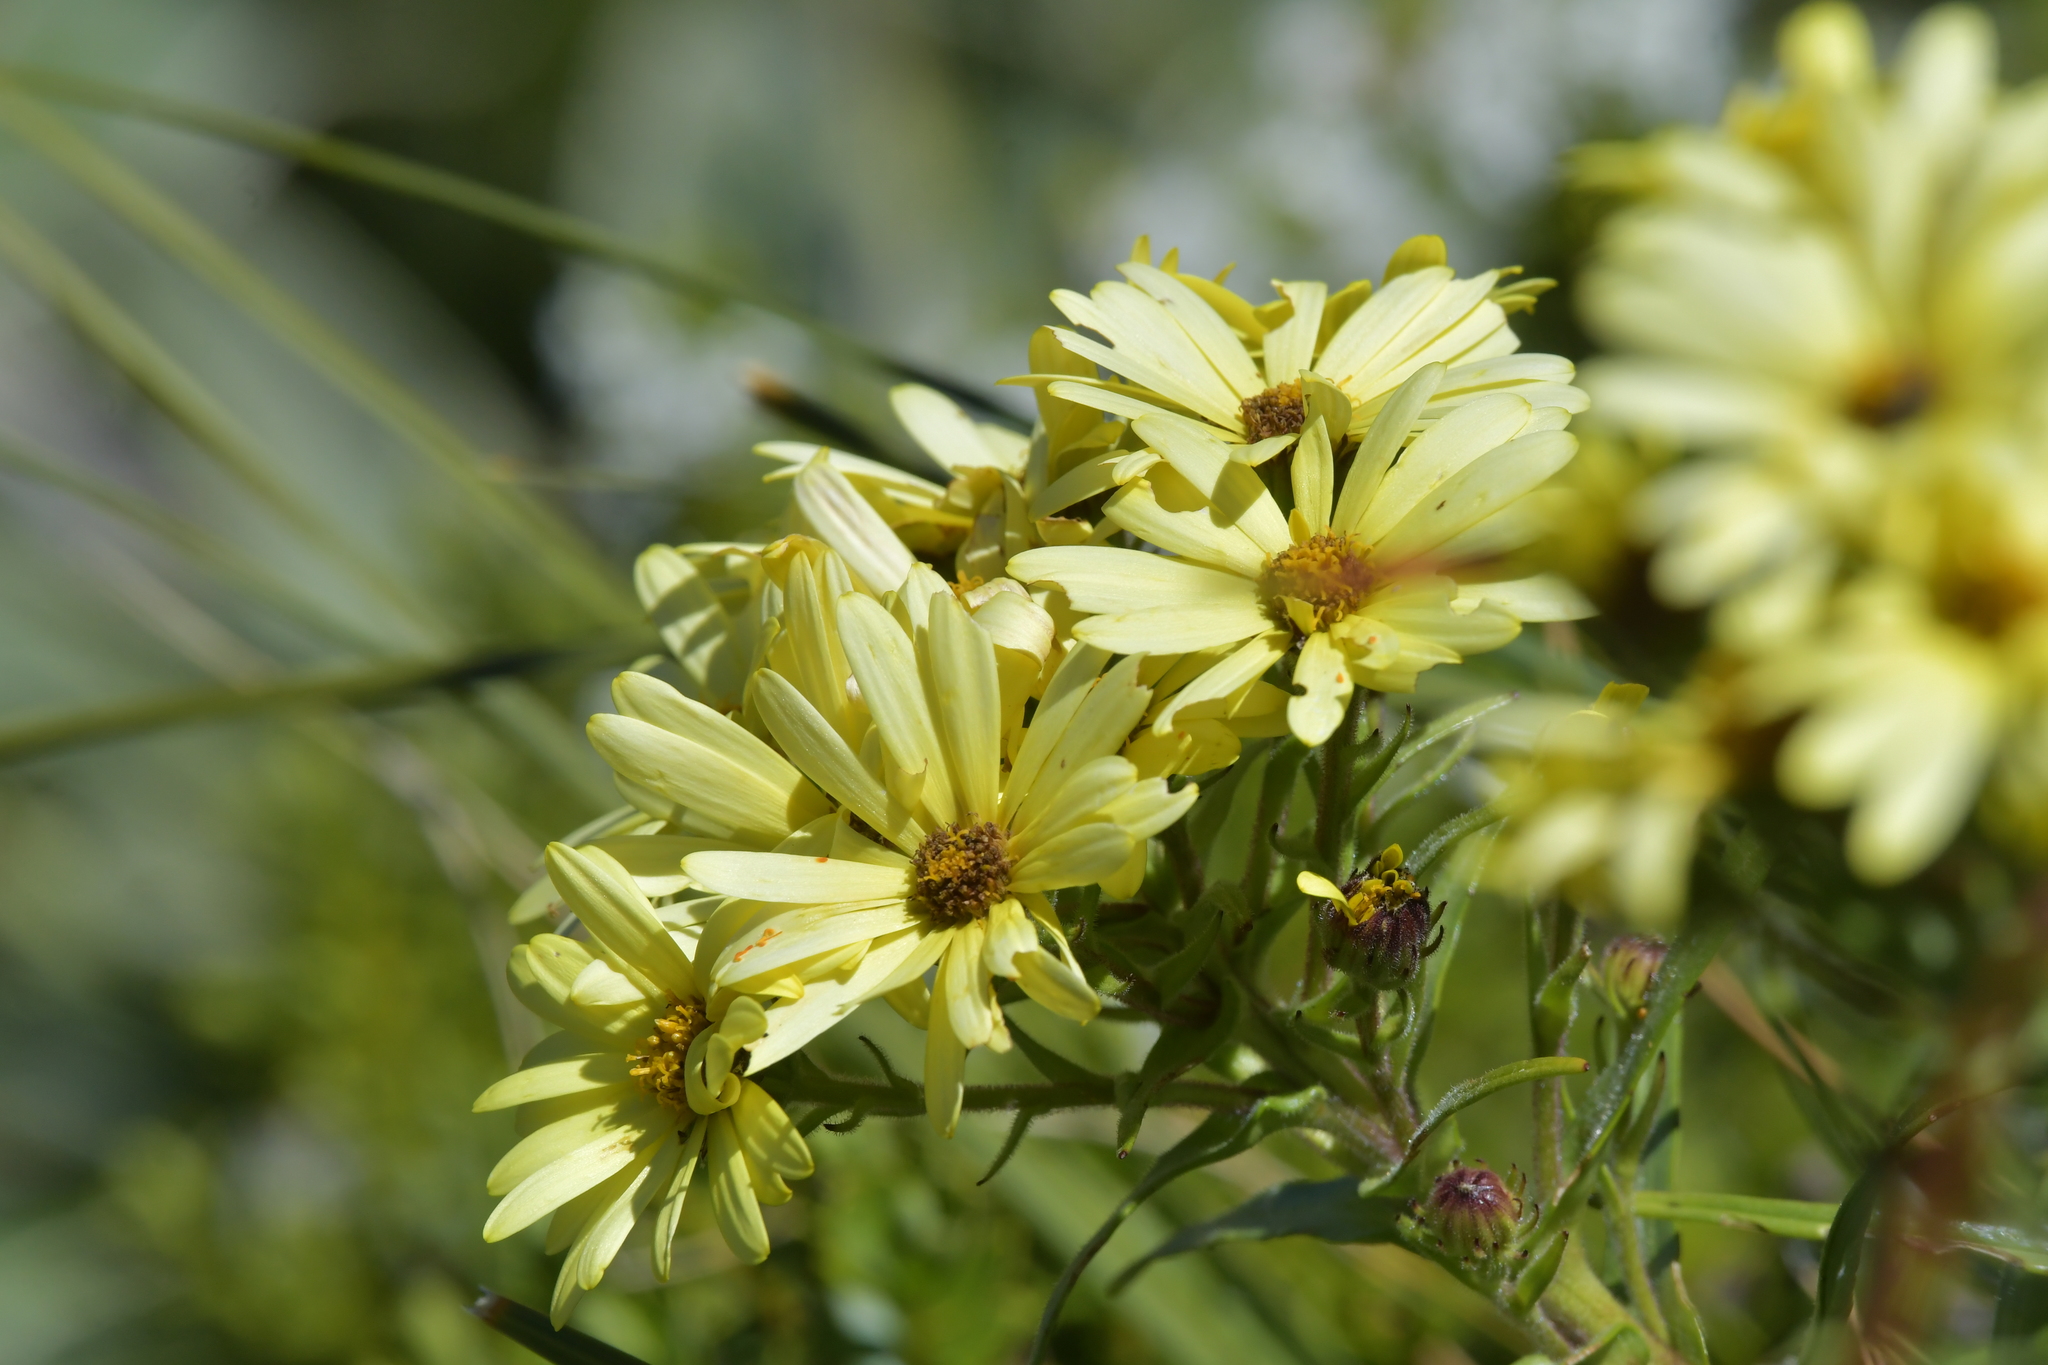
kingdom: Plantae
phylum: Tracheophyta
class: Magnoliopsida
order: Asterales
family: Asteraceae
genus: Dolichoglottis
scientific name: Dolichoglottis
